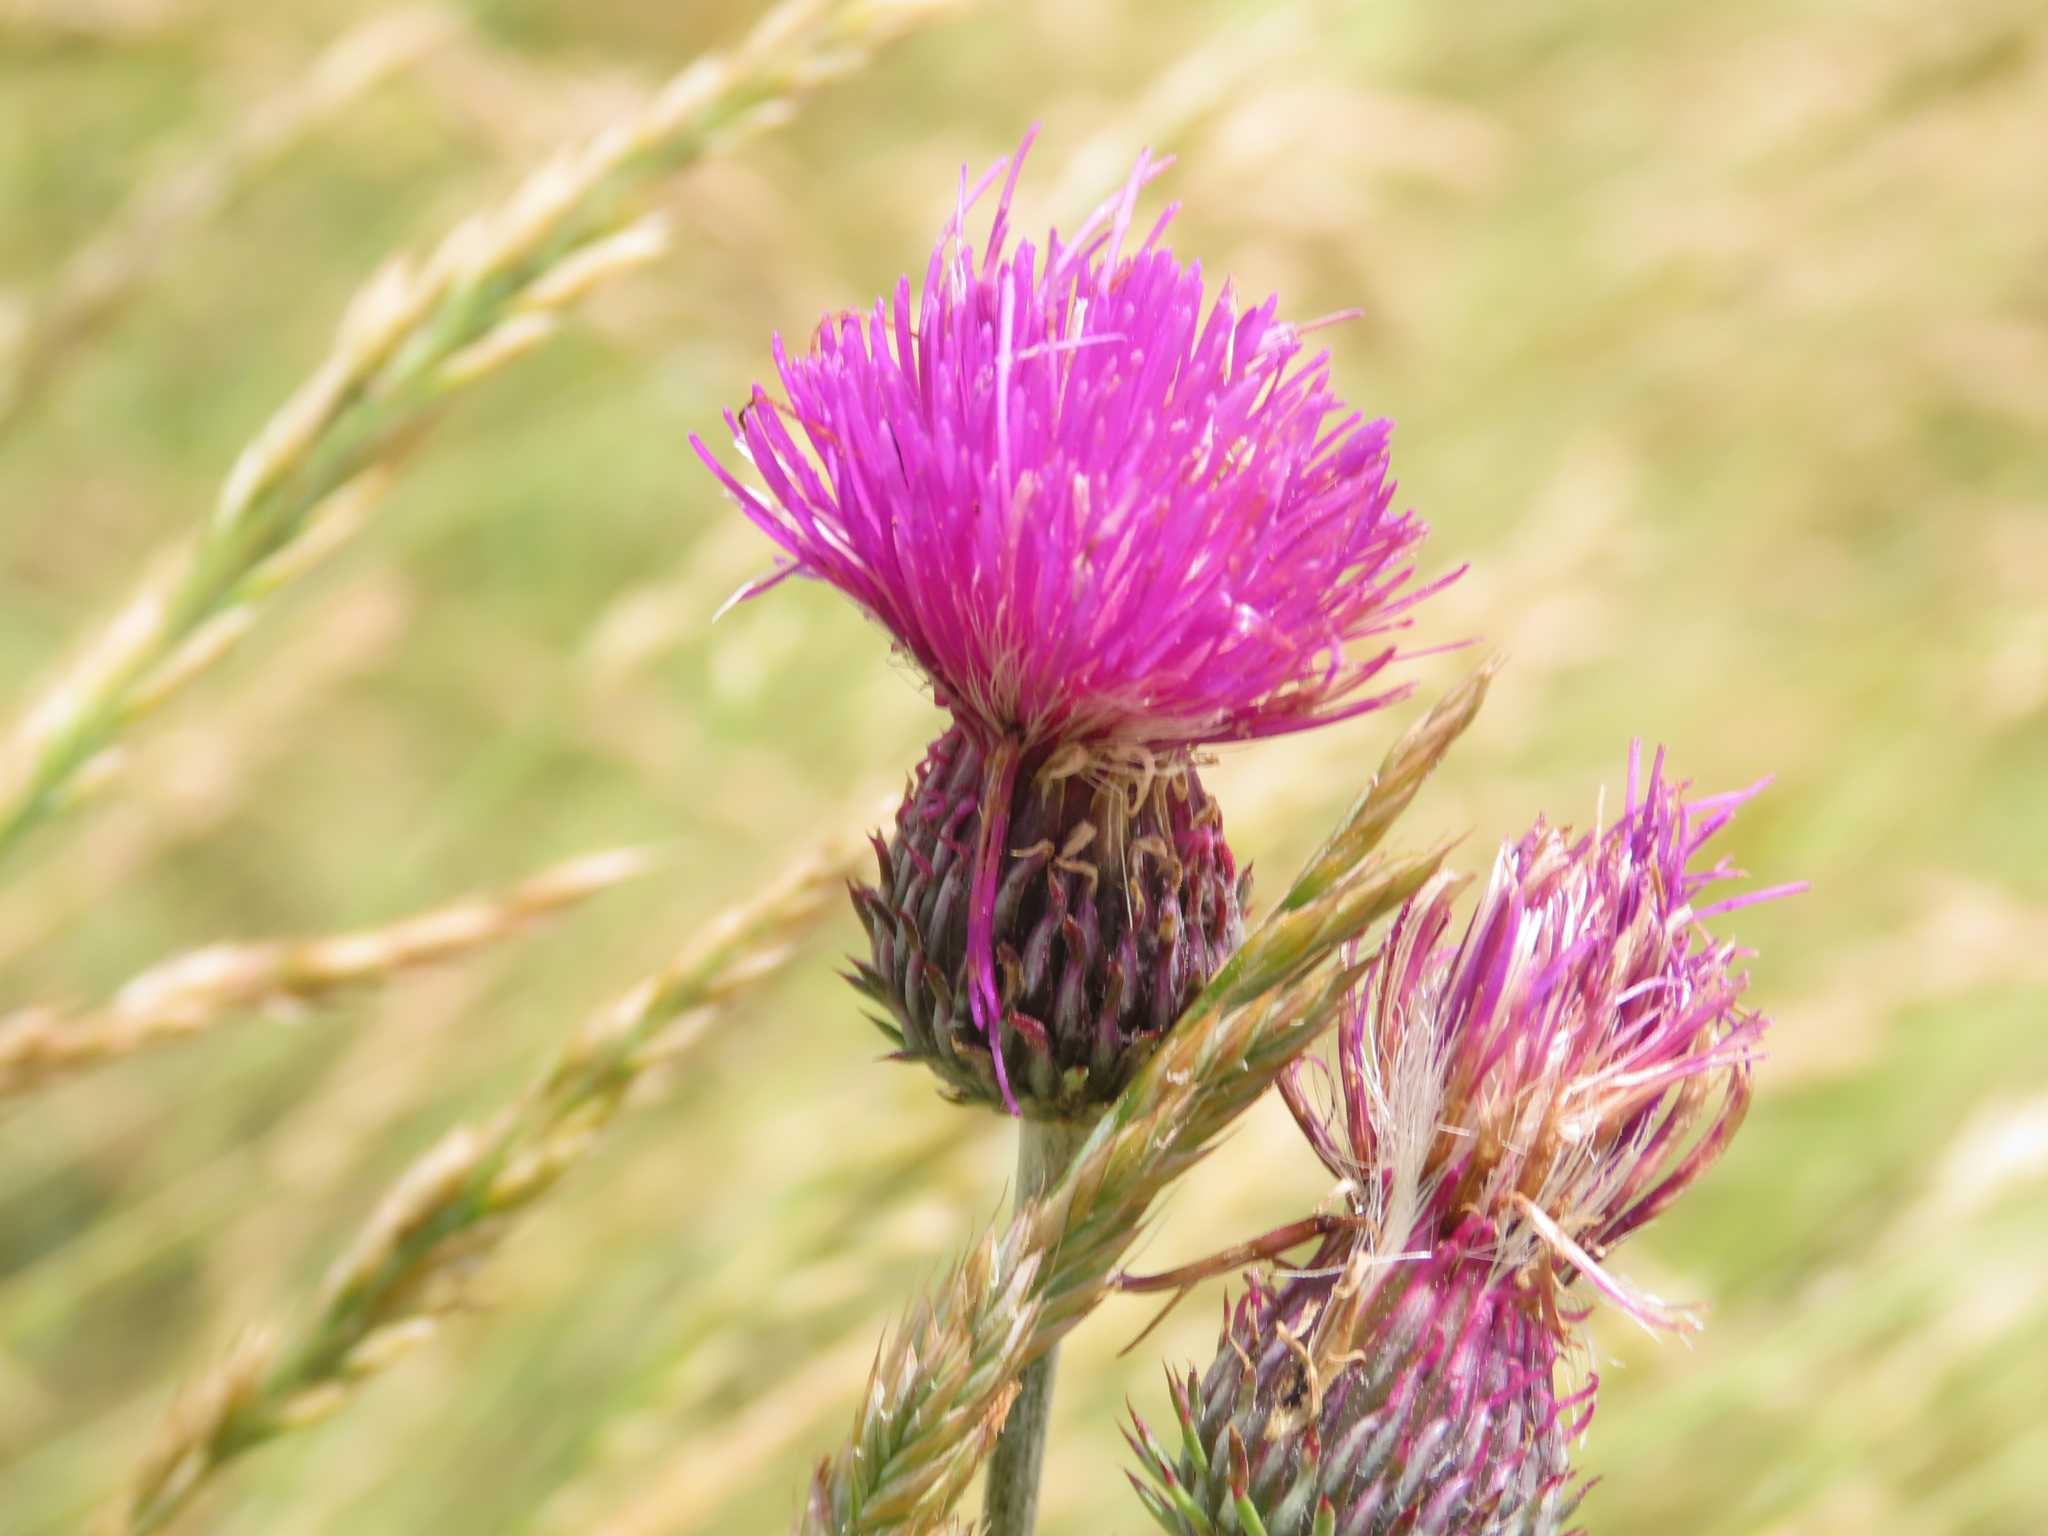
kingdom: Plantae
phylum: Tracheophyta
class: Magnoliopsida
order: Asterales
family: Asteraceae
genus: Carduus
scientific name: Carduus affinis
